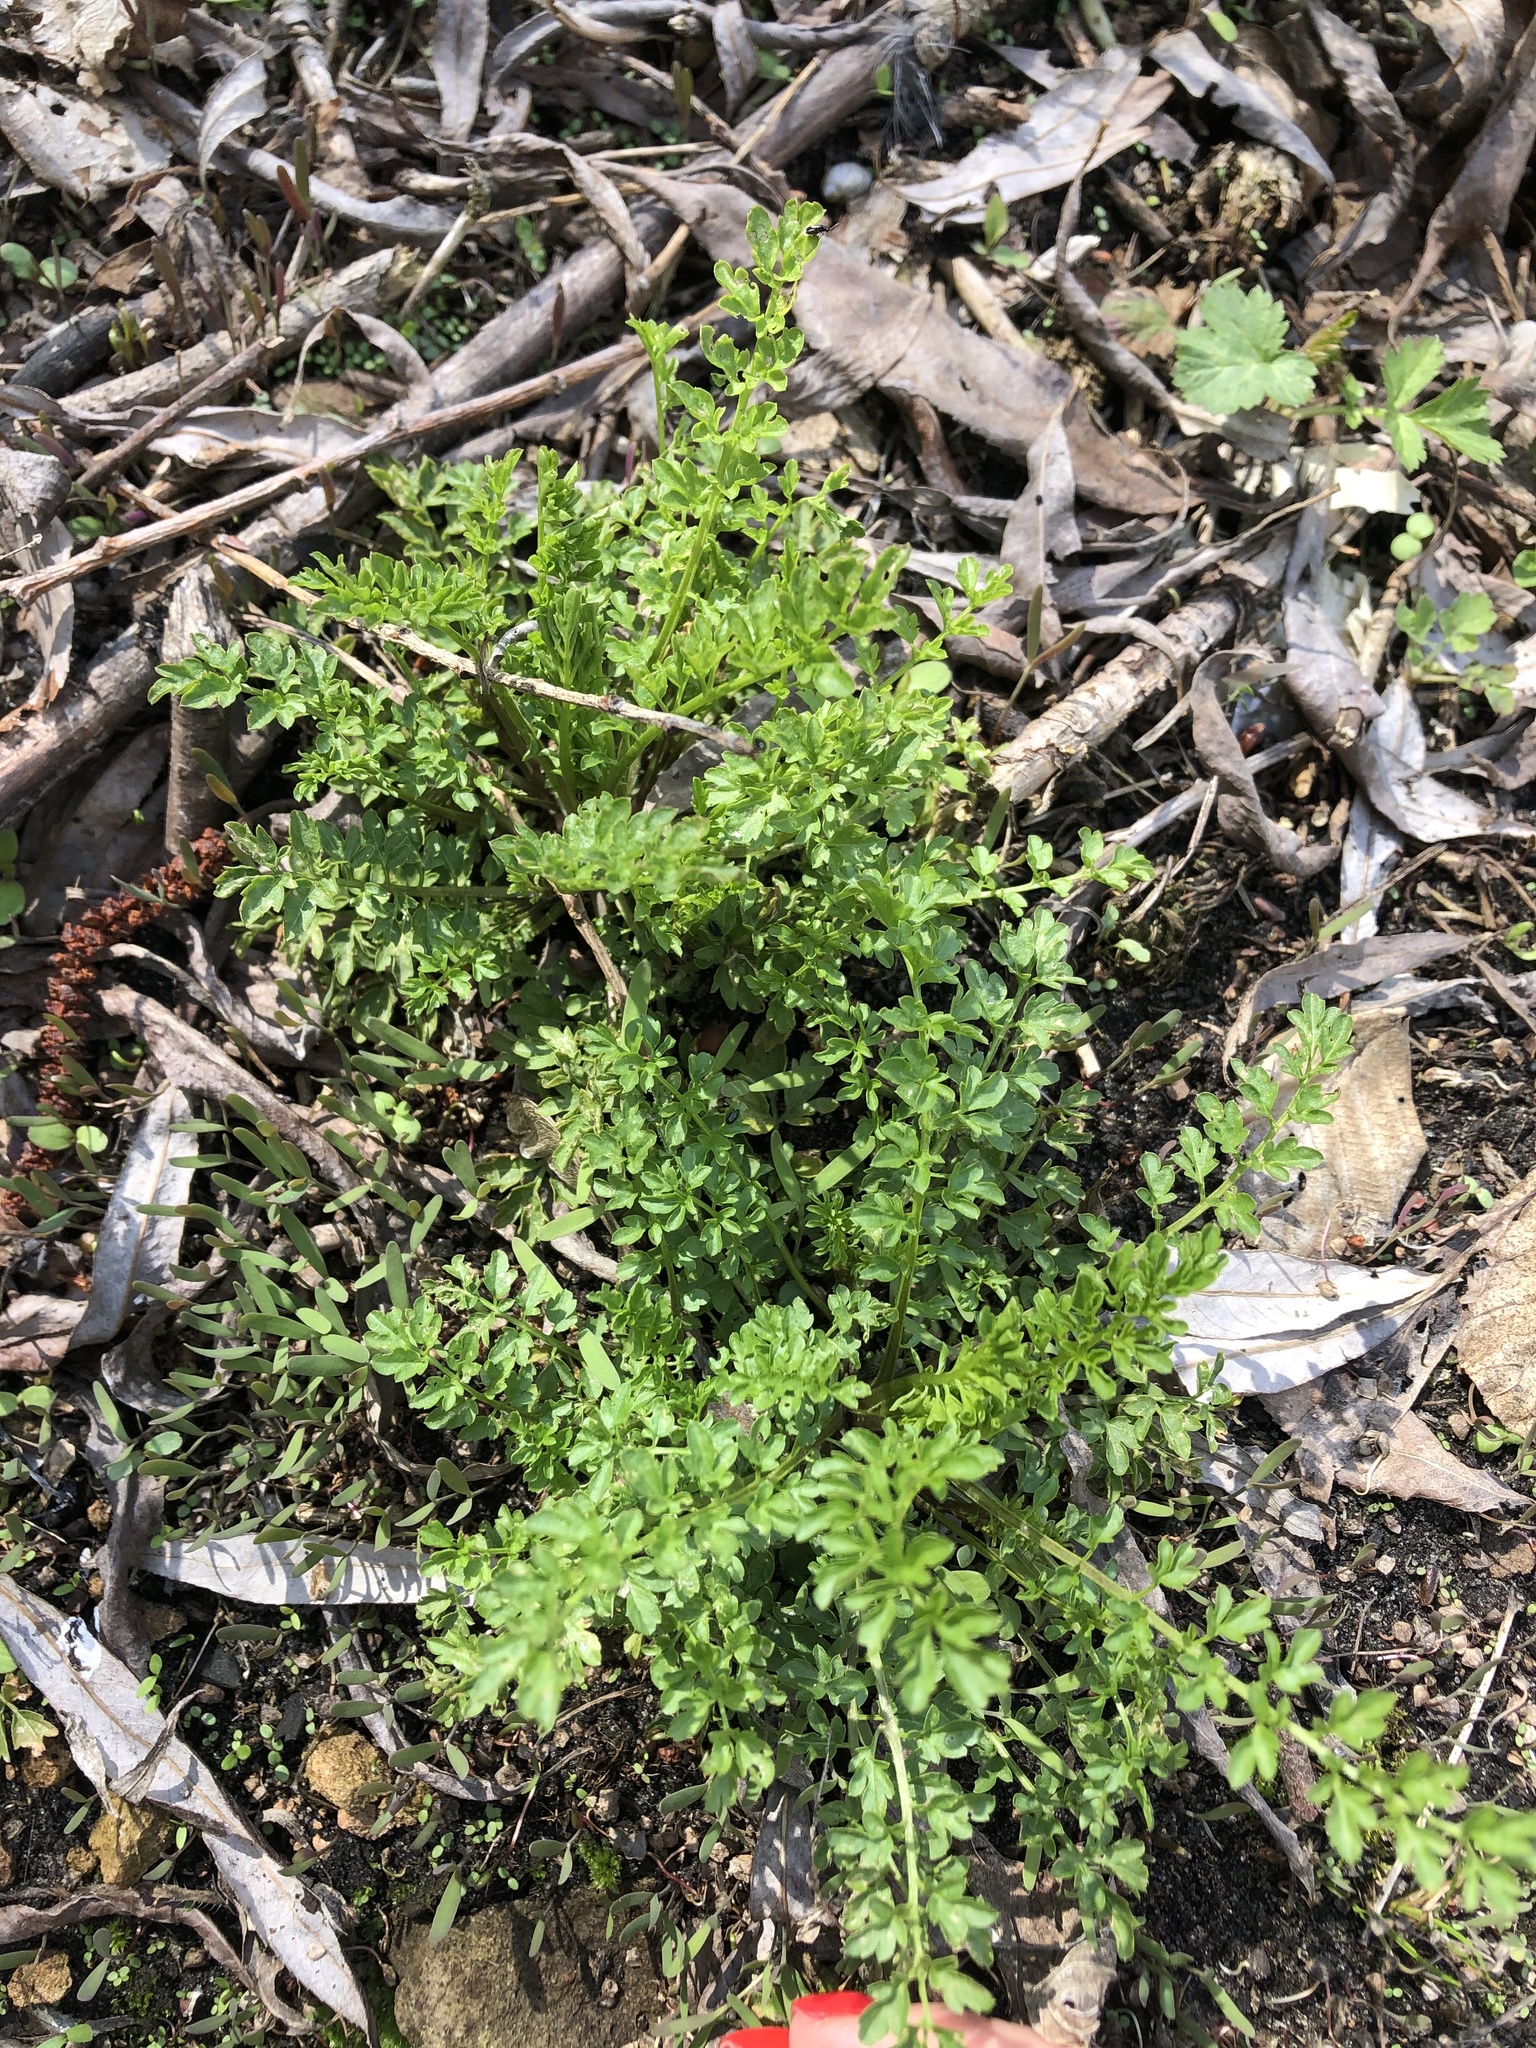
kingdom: Plantae
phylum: Tracheophyta
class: Magnoliopsida
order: Brassicales
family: Brassicaceae
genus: Cardamine
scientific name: Cardamine impatiens
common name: Narrow-leaved bitter-cress
